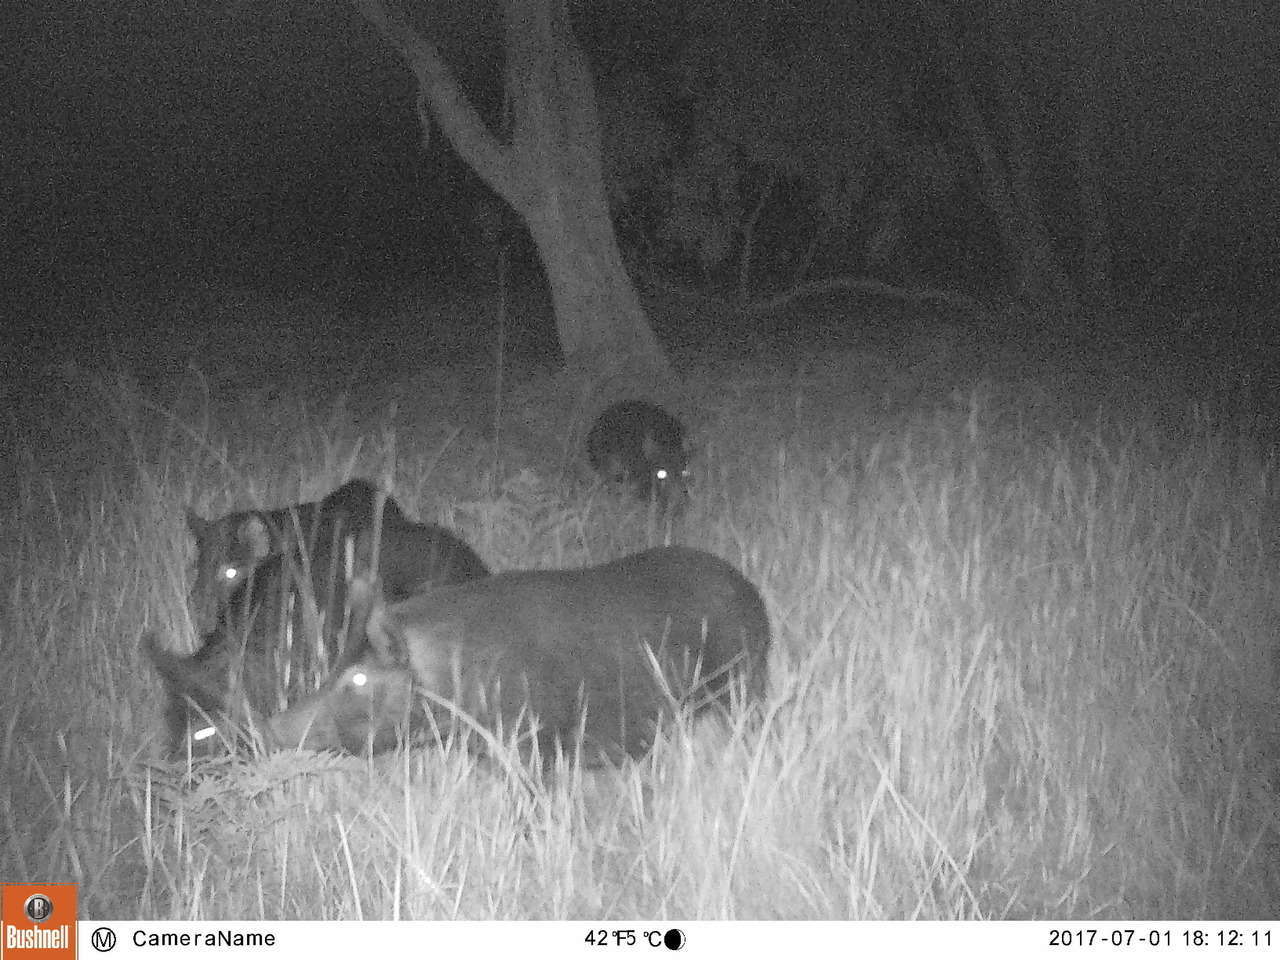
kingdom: Animalia
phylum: Chordata
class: Mammalia
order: Artiodactyla
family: Suidae
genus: Sus
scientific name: Sus scrofa
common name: Wild boar
